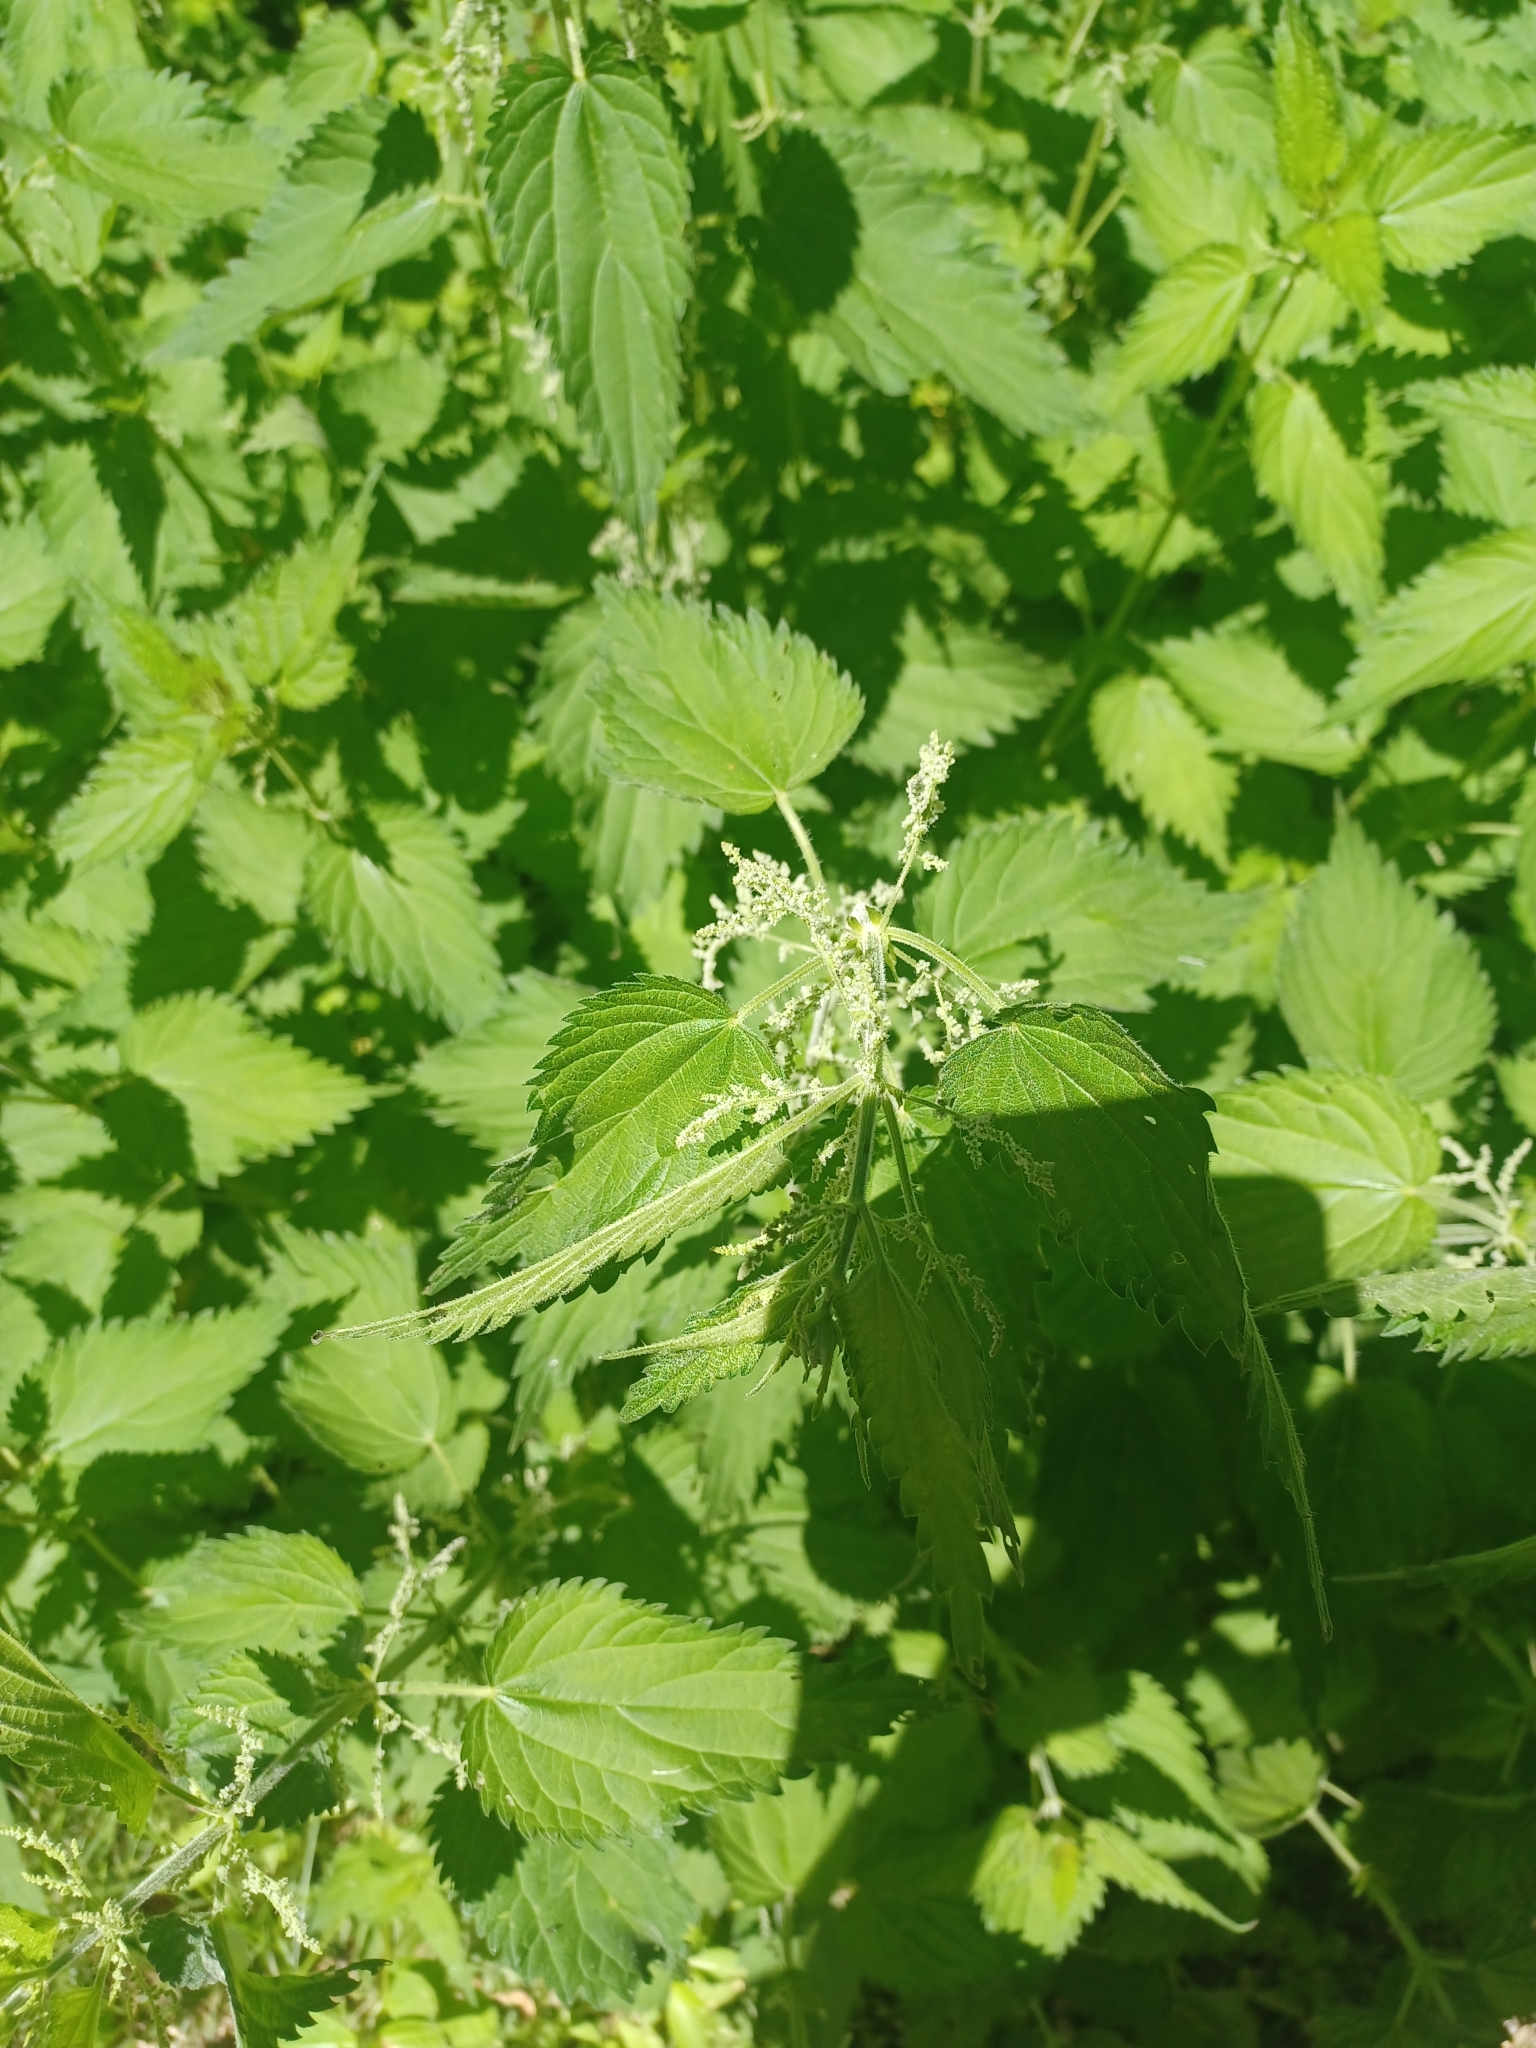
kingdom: Plantae
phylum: Tracheophyta
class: Magnoliopsida
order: Rosales
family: Urticaceae
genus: Urtica
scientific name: Urtica dioica
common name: Common nettle
